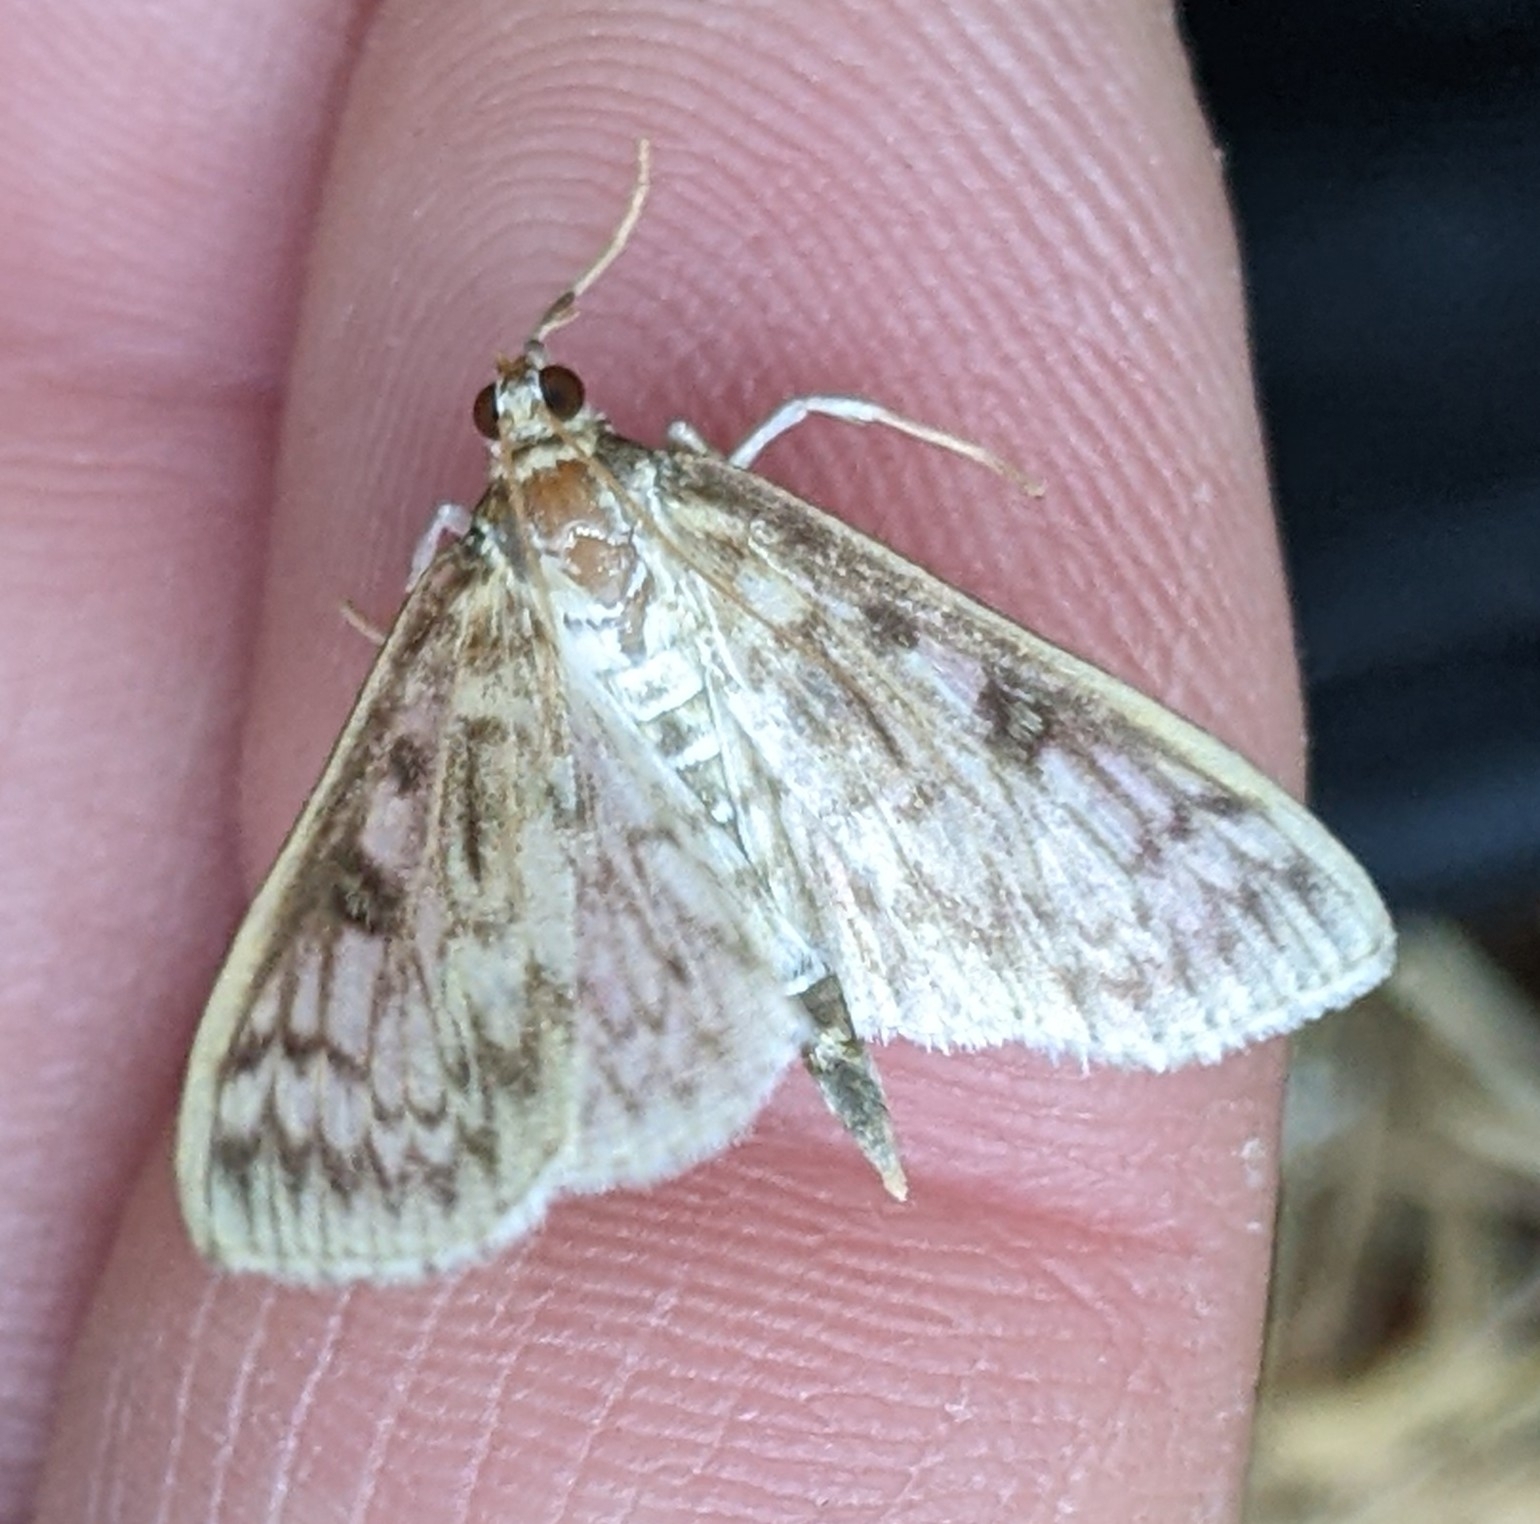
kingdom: Animalia
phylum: Arthropoda
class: Insecta
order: Lepidoptera
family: Crambidae
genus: Herpetogramma
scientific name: Herpetogramma aquilonalis
